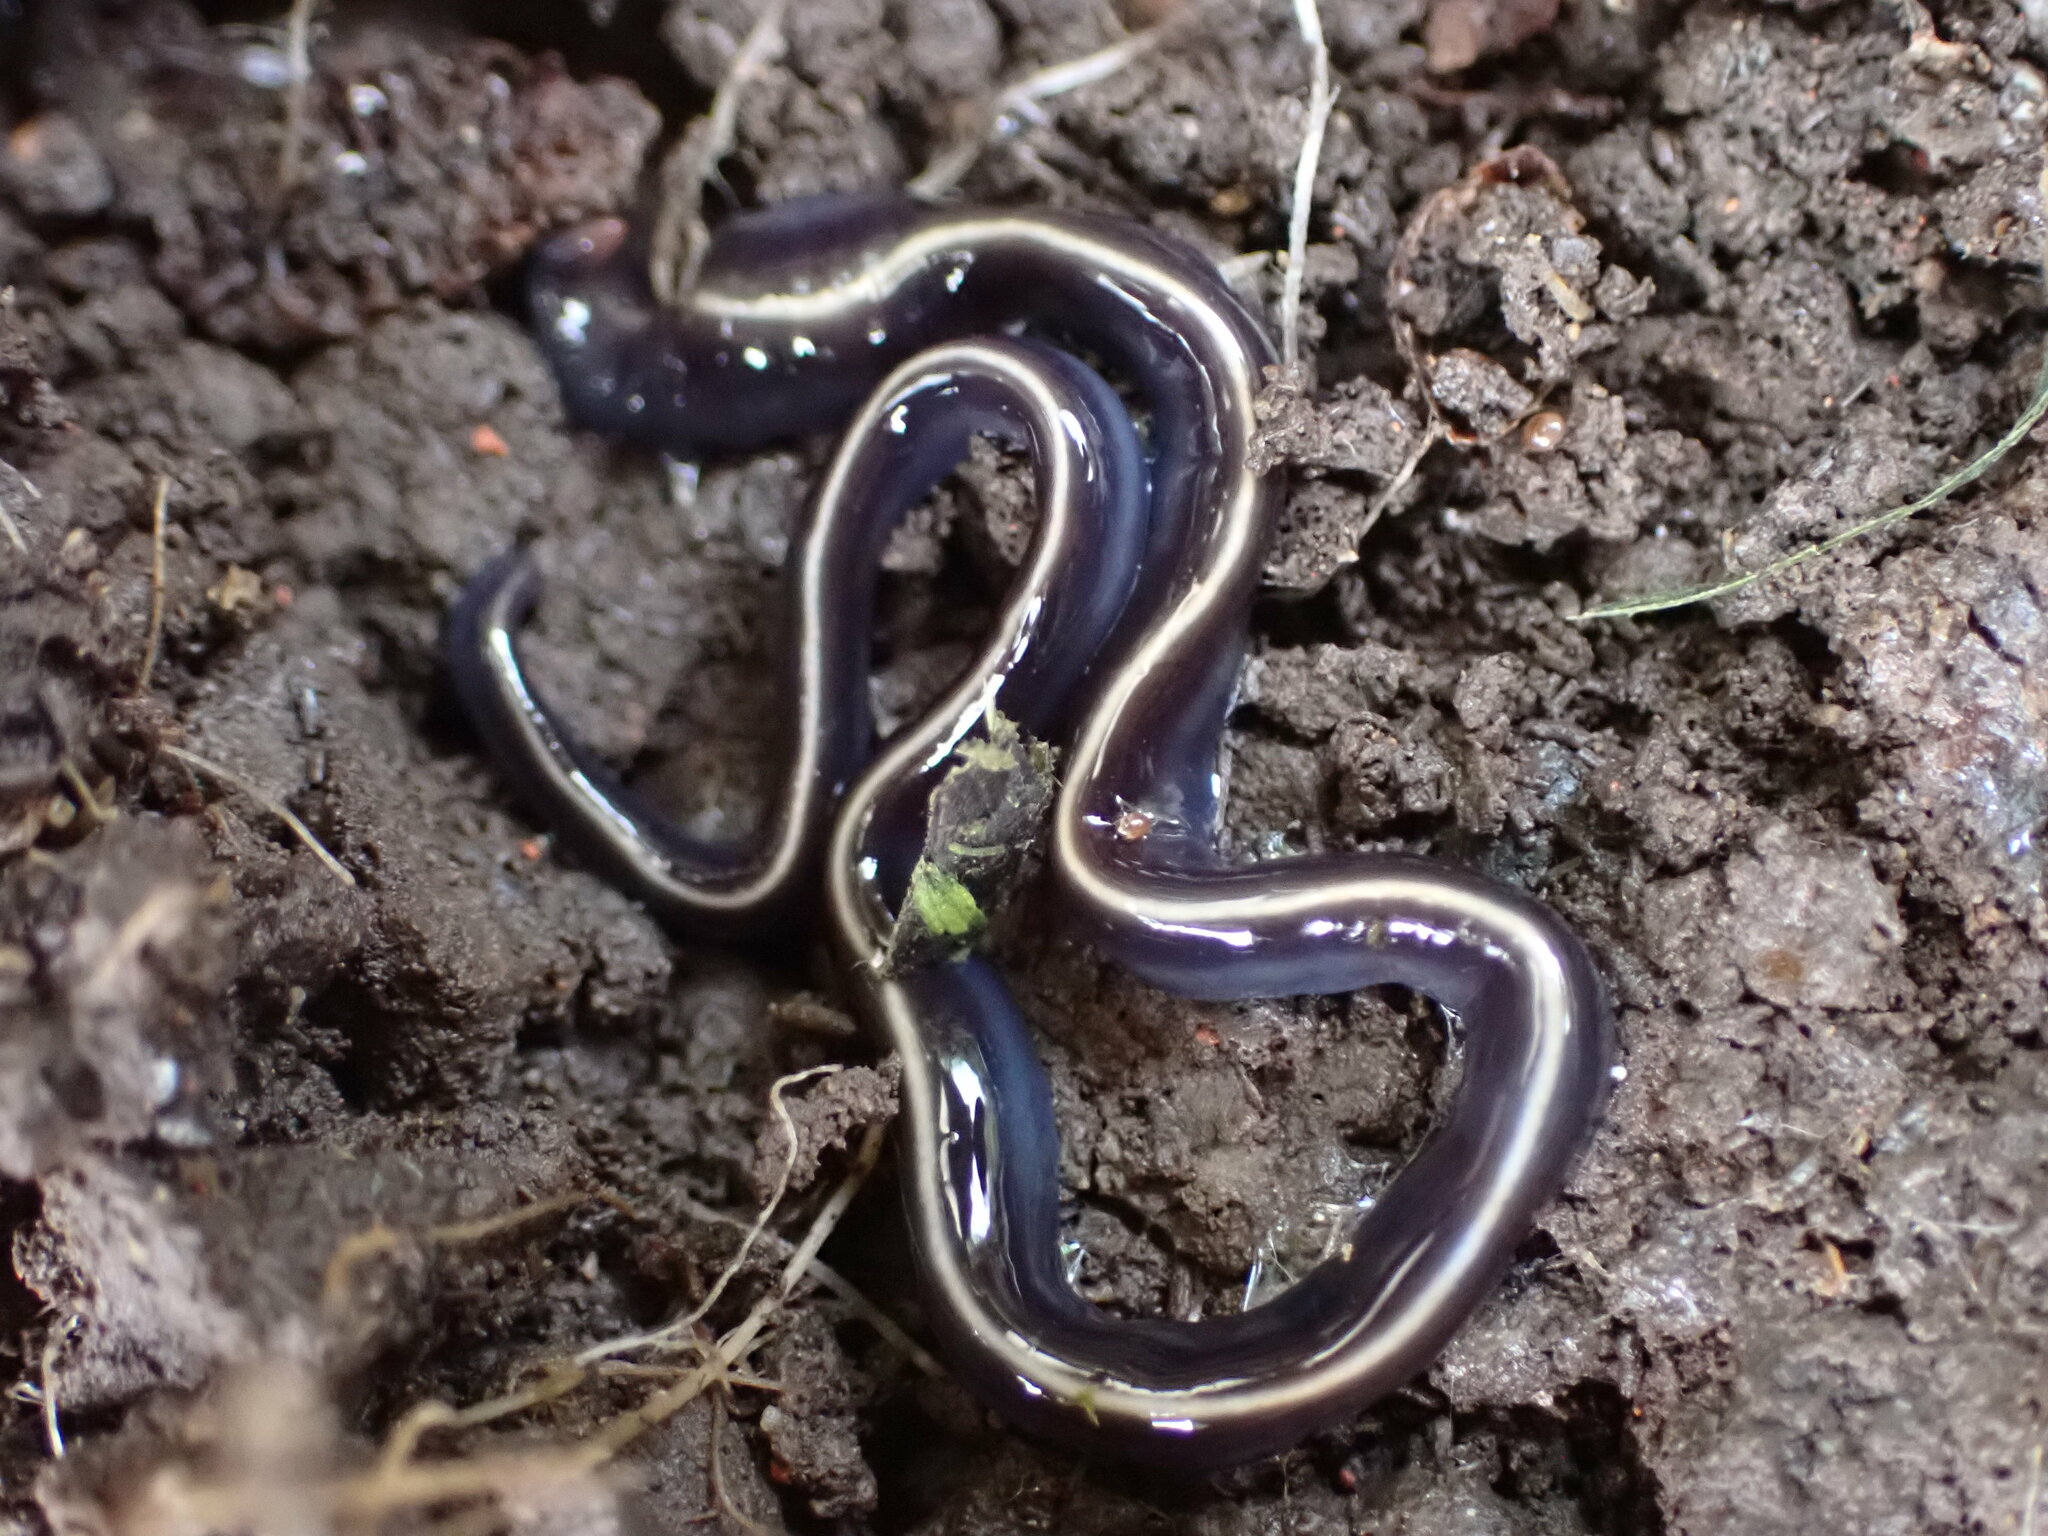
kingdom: Animalia
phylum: Platyhelminthes
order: Tricladida
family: Geoplanidae
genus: Caenoplana
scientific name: Caenoplana coerulea
